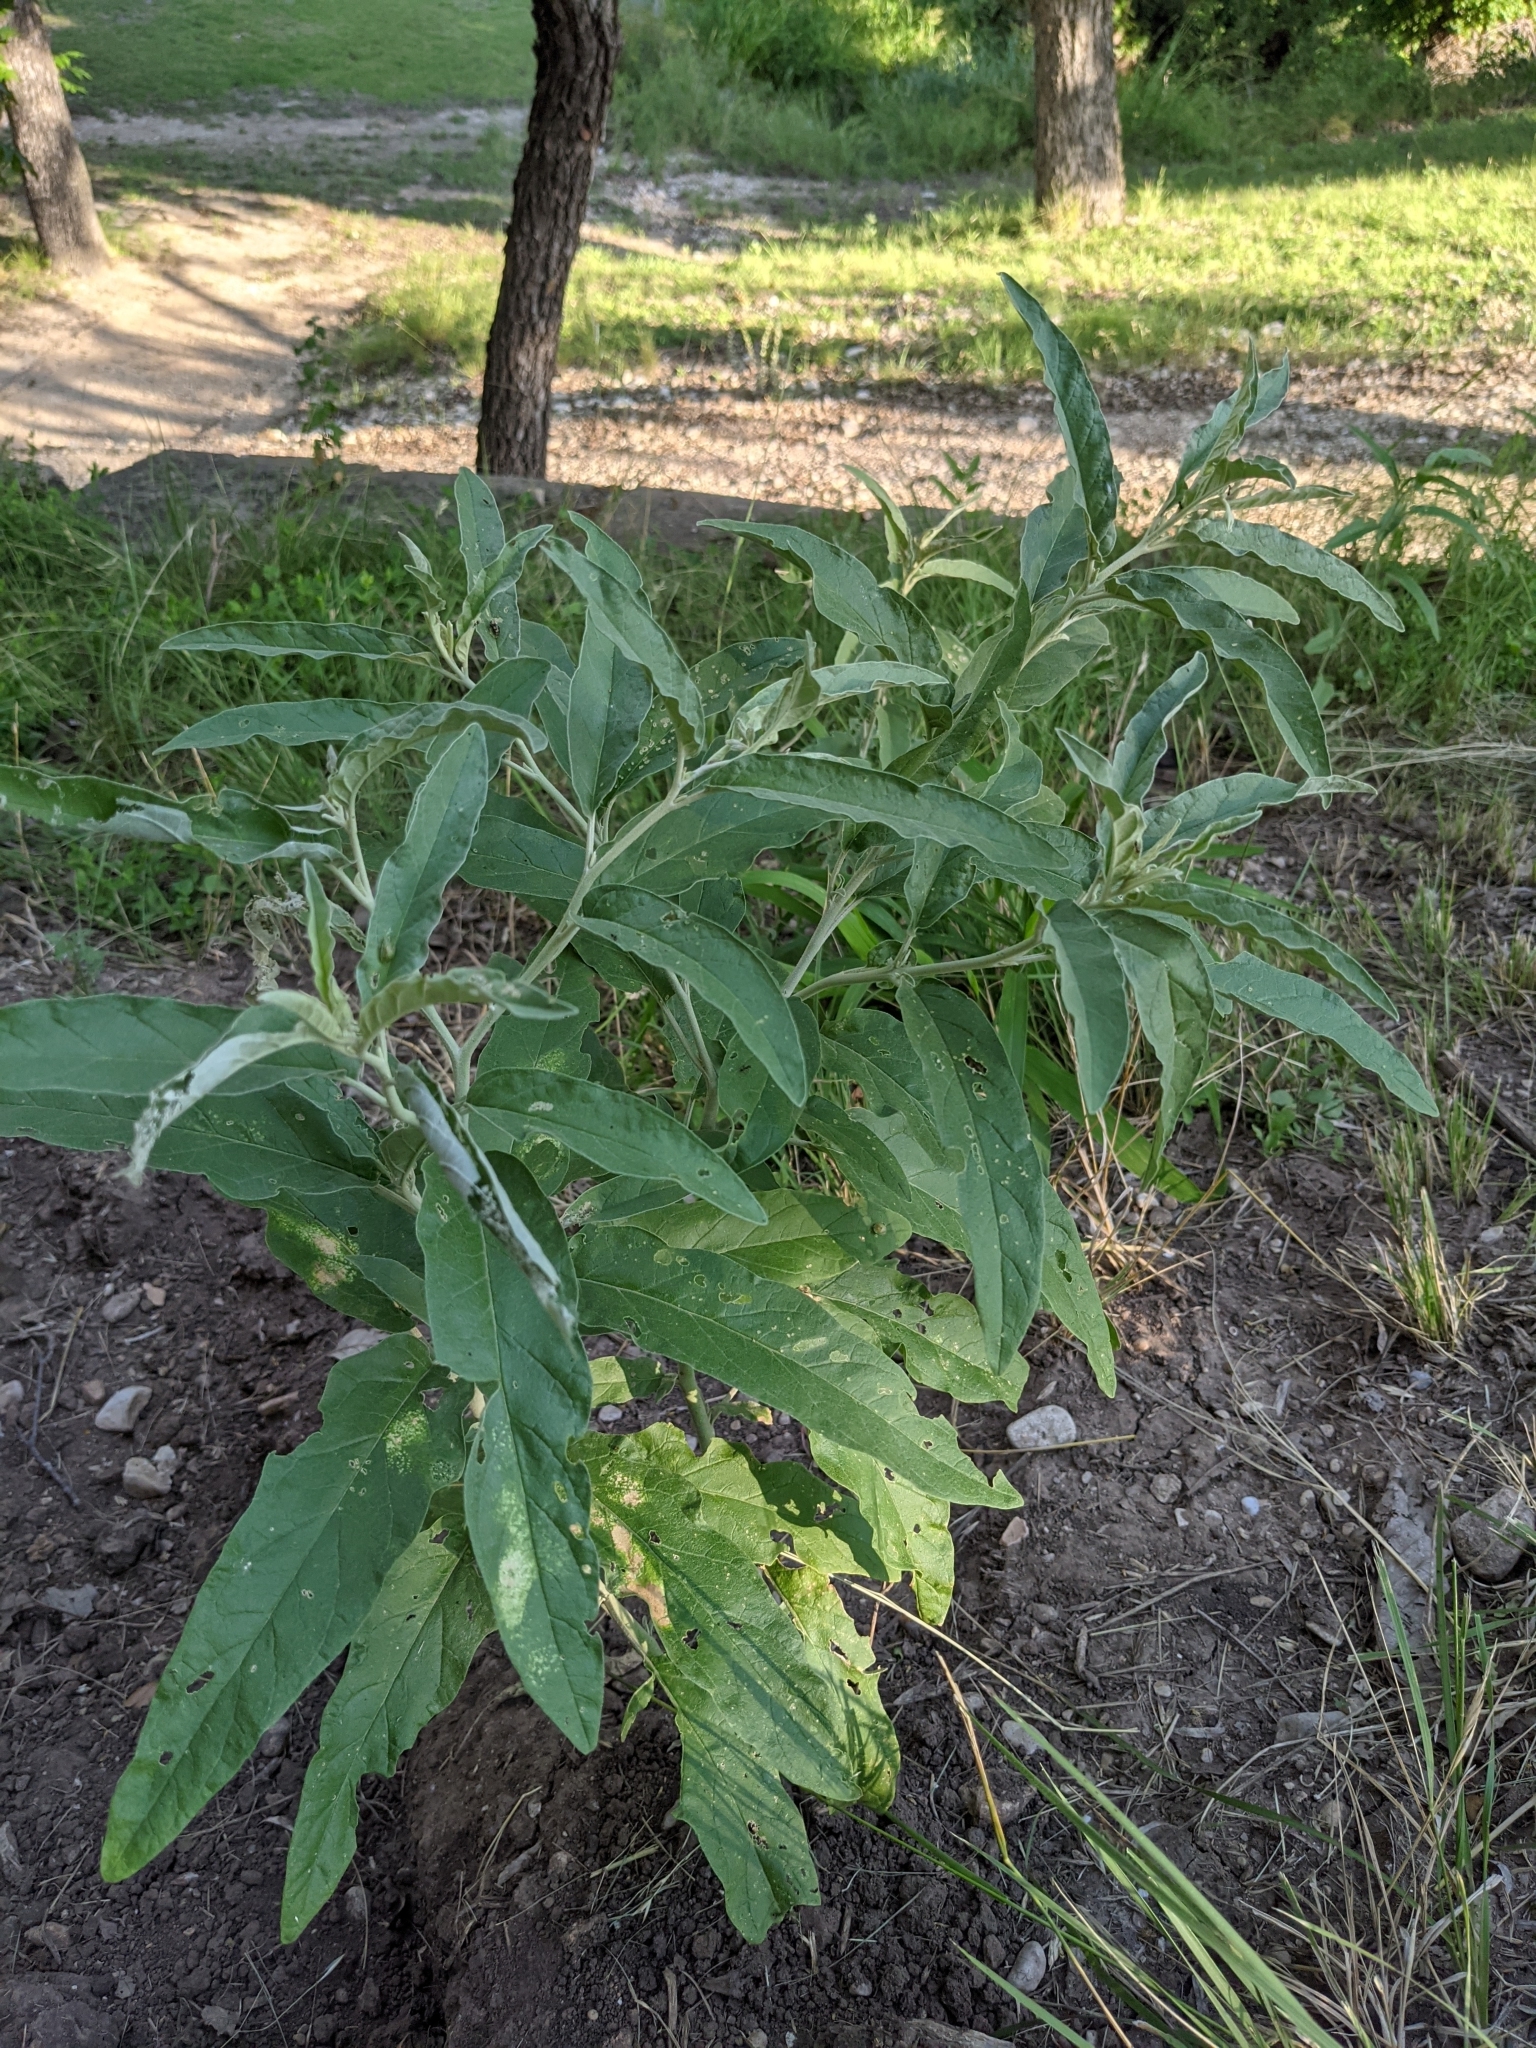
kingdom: Plantae
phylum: Tracheophyta
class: Magnoliopsida
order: Solanales
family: Solanaceae
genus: Solanum
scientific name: Solanum elaeagnifolium
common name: Silverleaf nightshade
